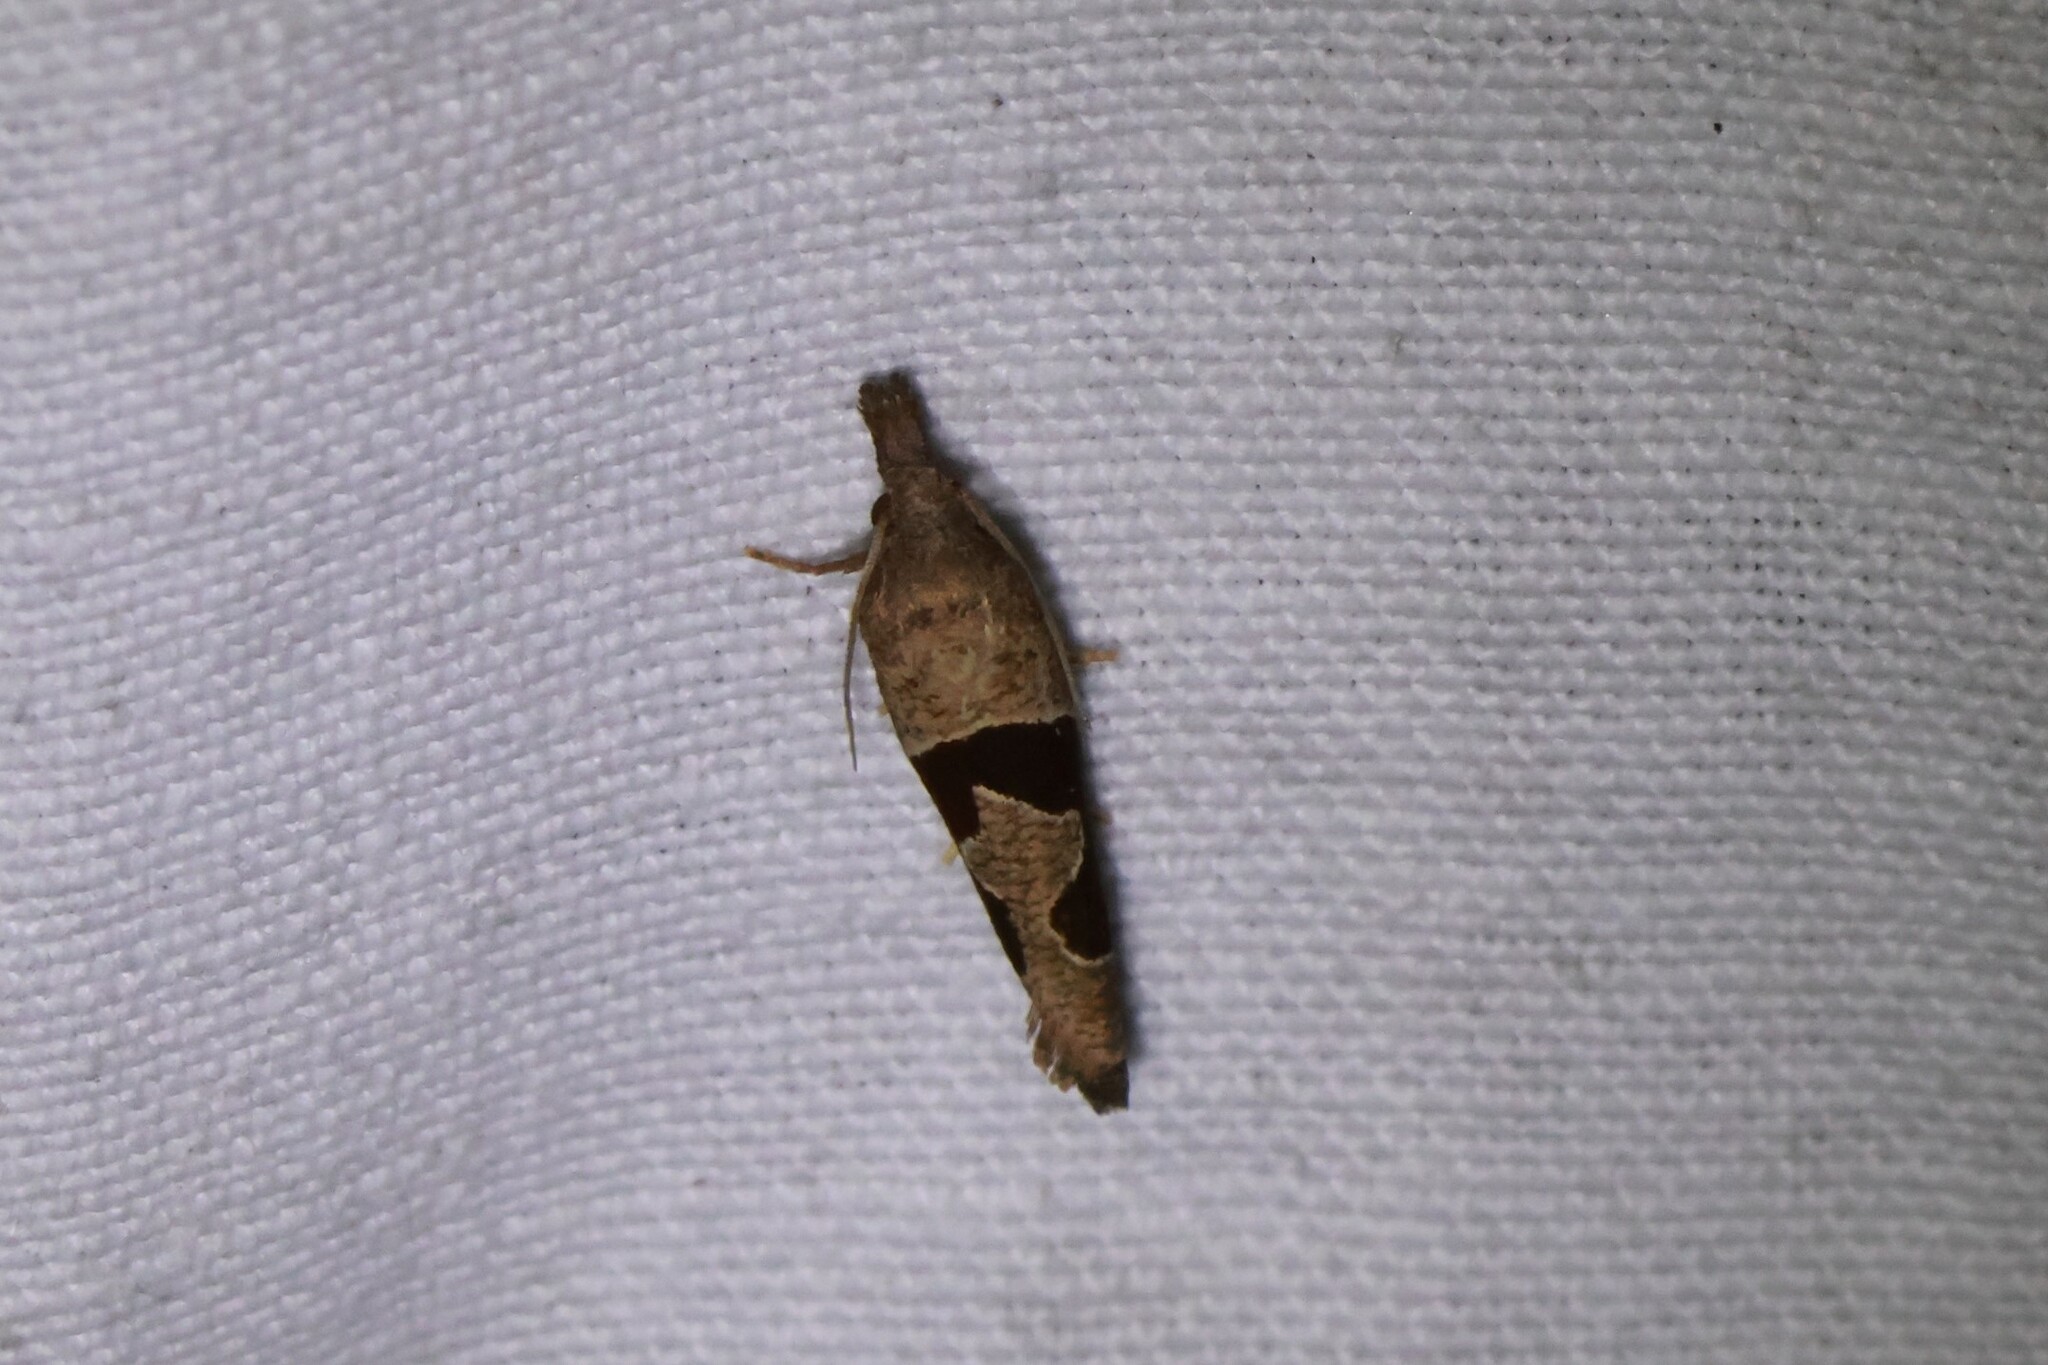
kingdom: Animalia
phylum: Arthropoda
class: Insecta
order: Lepidoptera
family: Tortricidae
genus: Pelochrista
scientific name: Pelochrista similiana
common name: Similar eucosma
